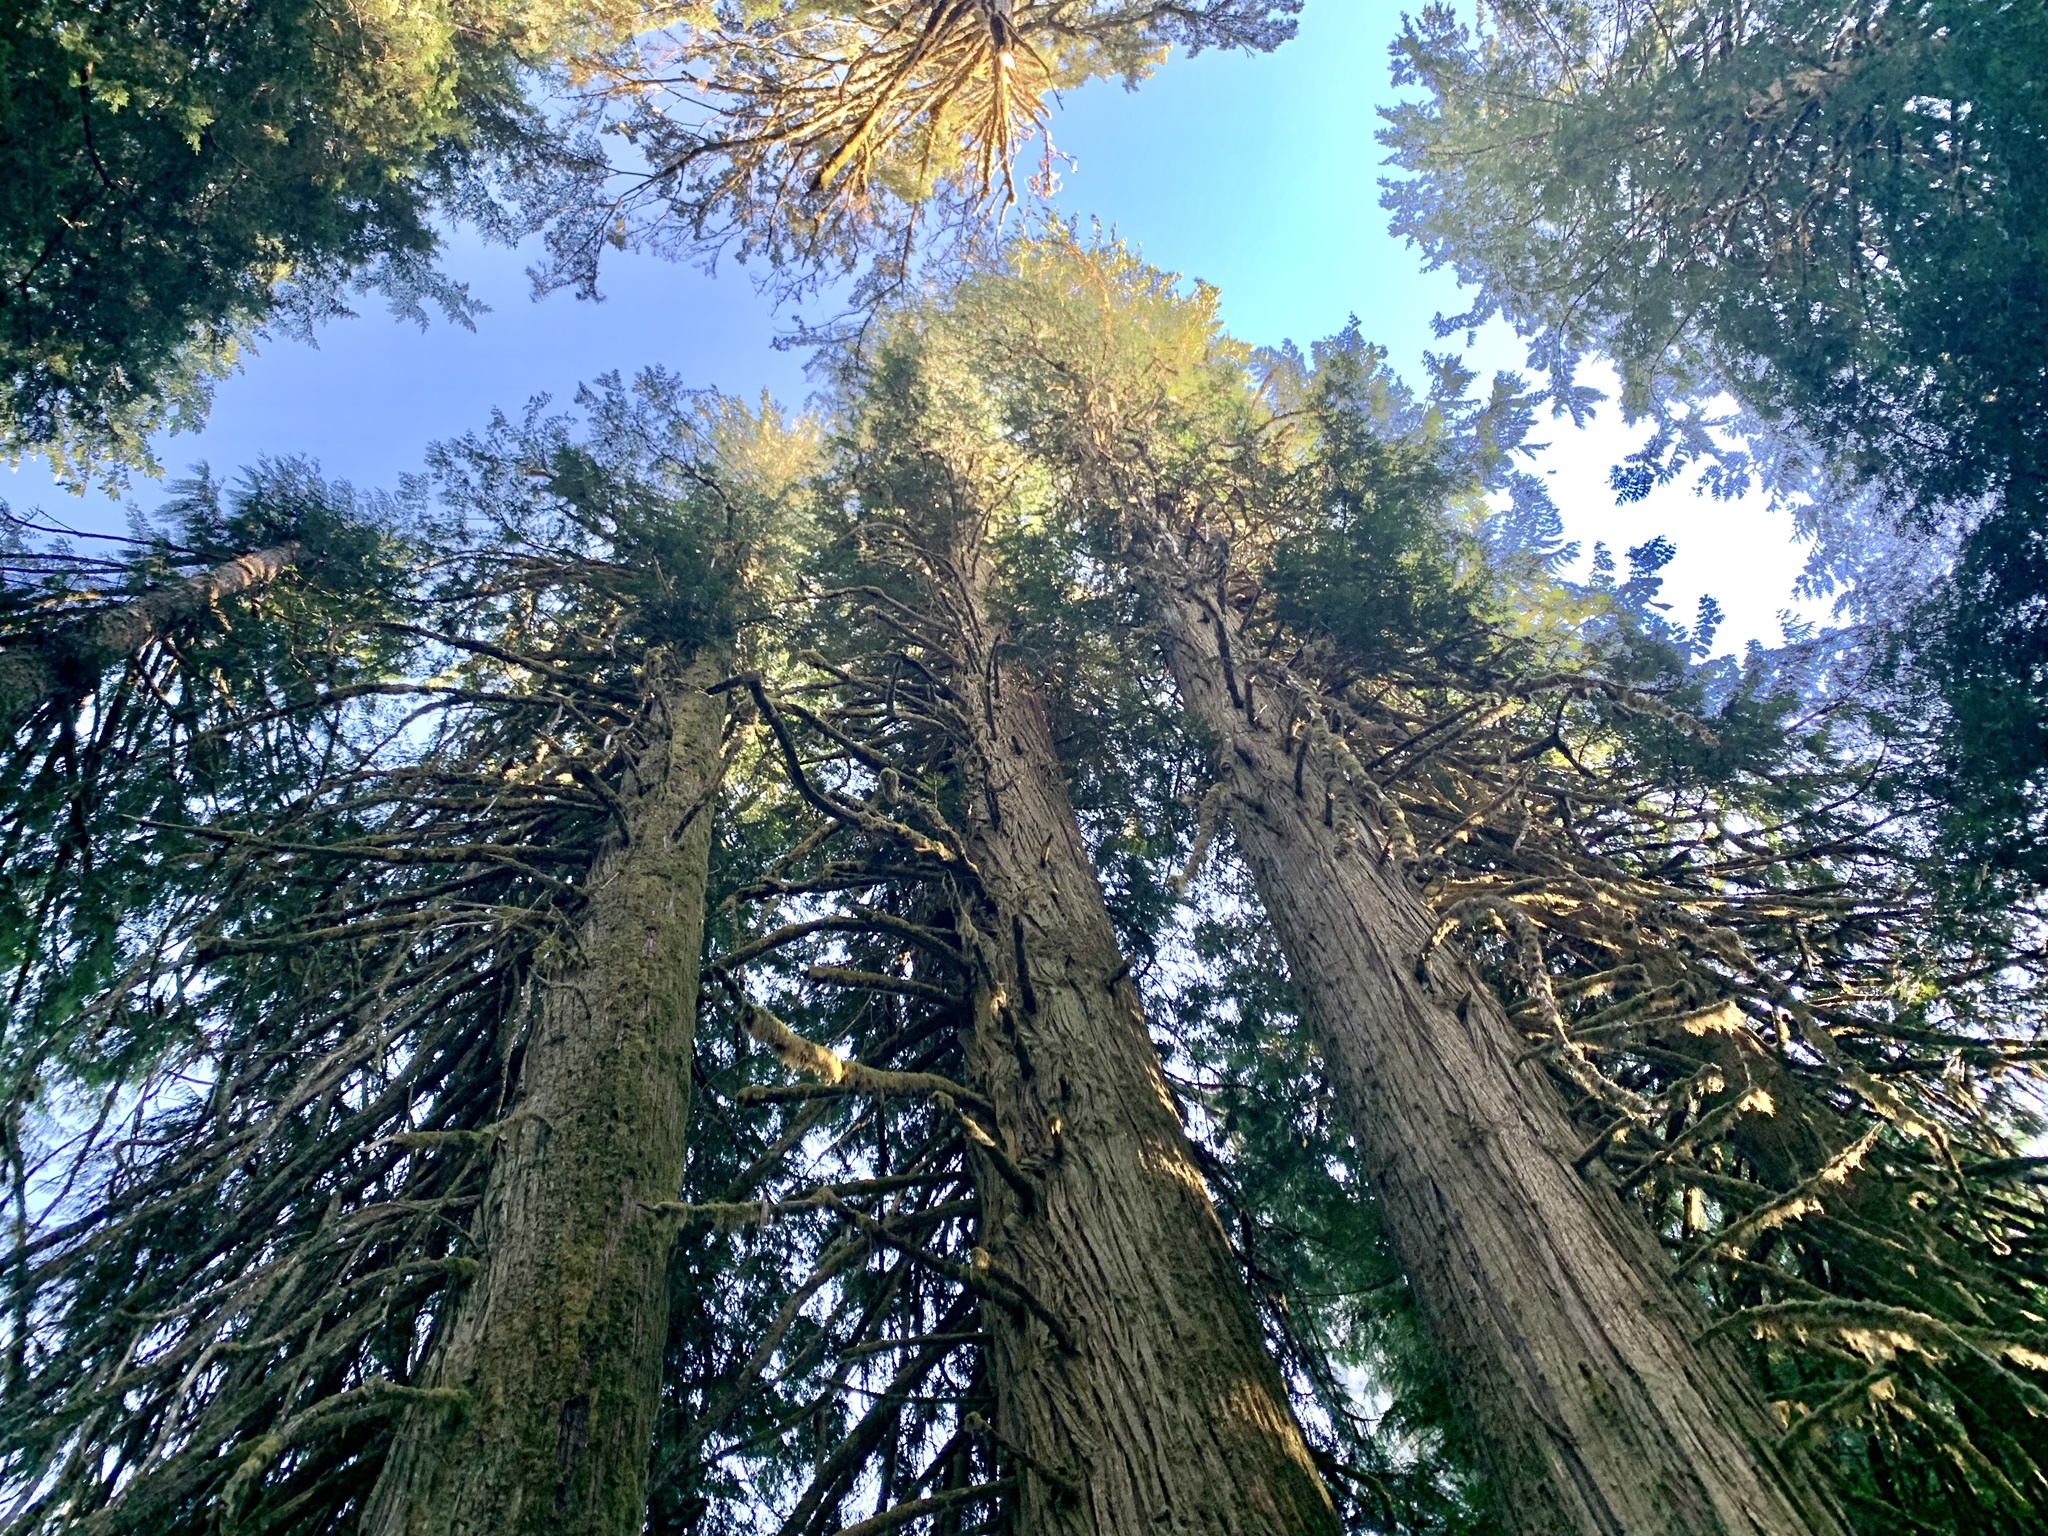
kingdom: Plantae
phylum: Tracheophyta
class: Pinopsida
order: Pinales
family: Cupressaceae
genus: Thuja
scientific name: Thuja plicata
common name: Western red-cedar
